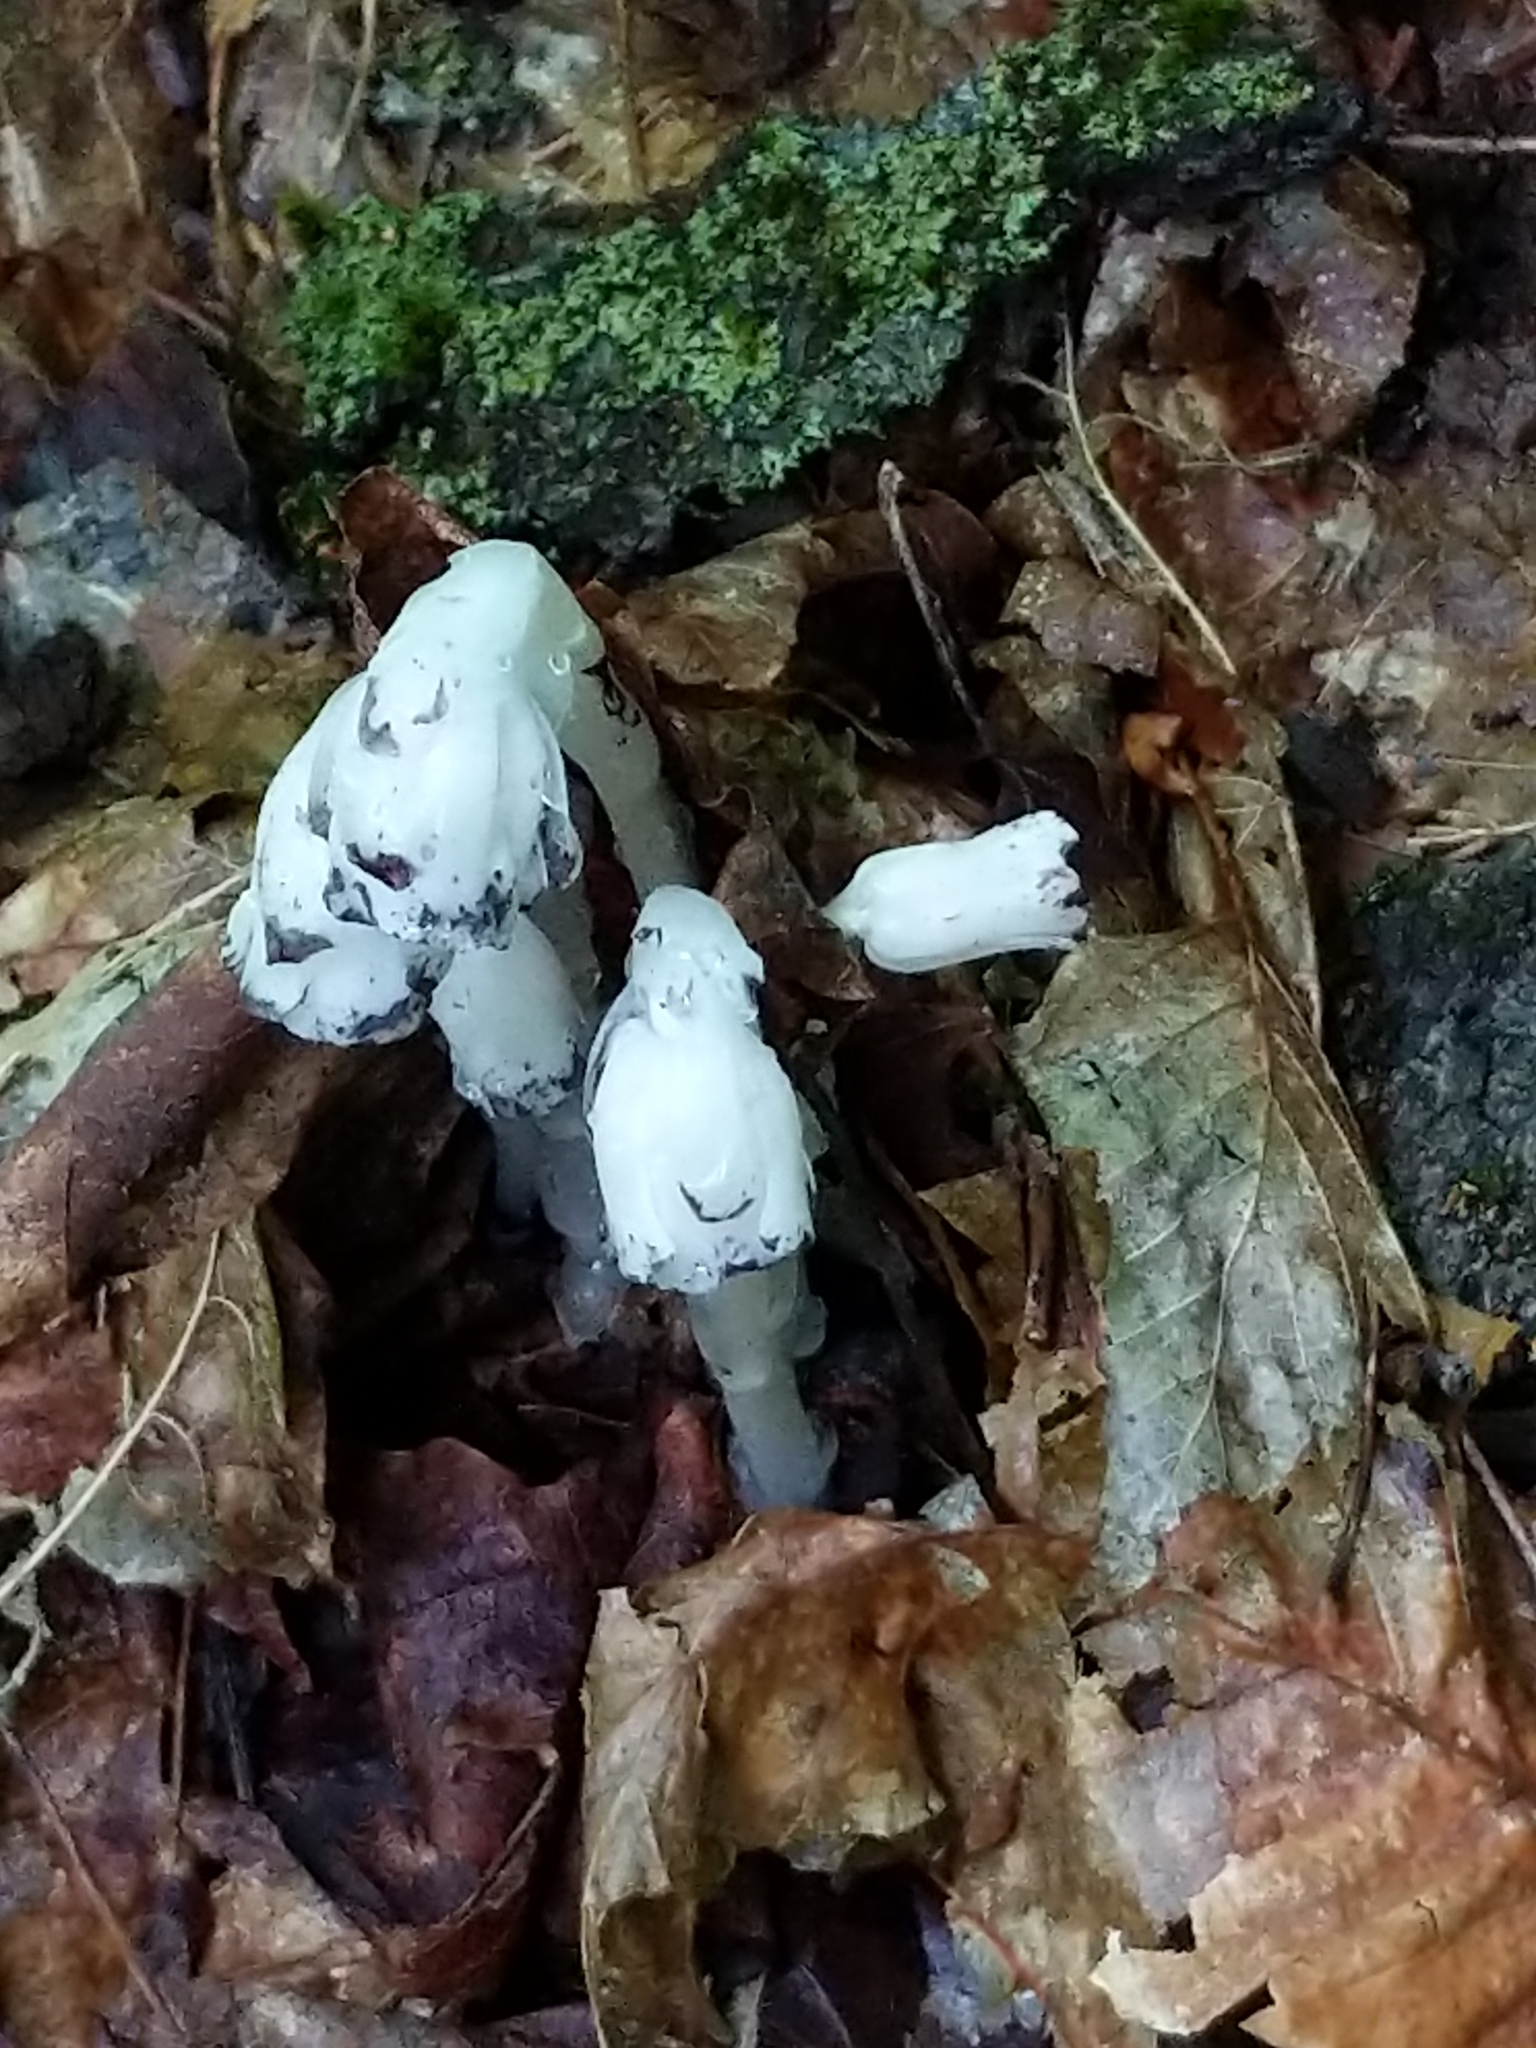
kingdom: Plantae
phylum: Tracheophyta
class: Magnoliopsida
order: Ericales
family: Ericaceae
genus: Monotropa
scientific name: Monotropa uniflora
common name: Convulsion root
